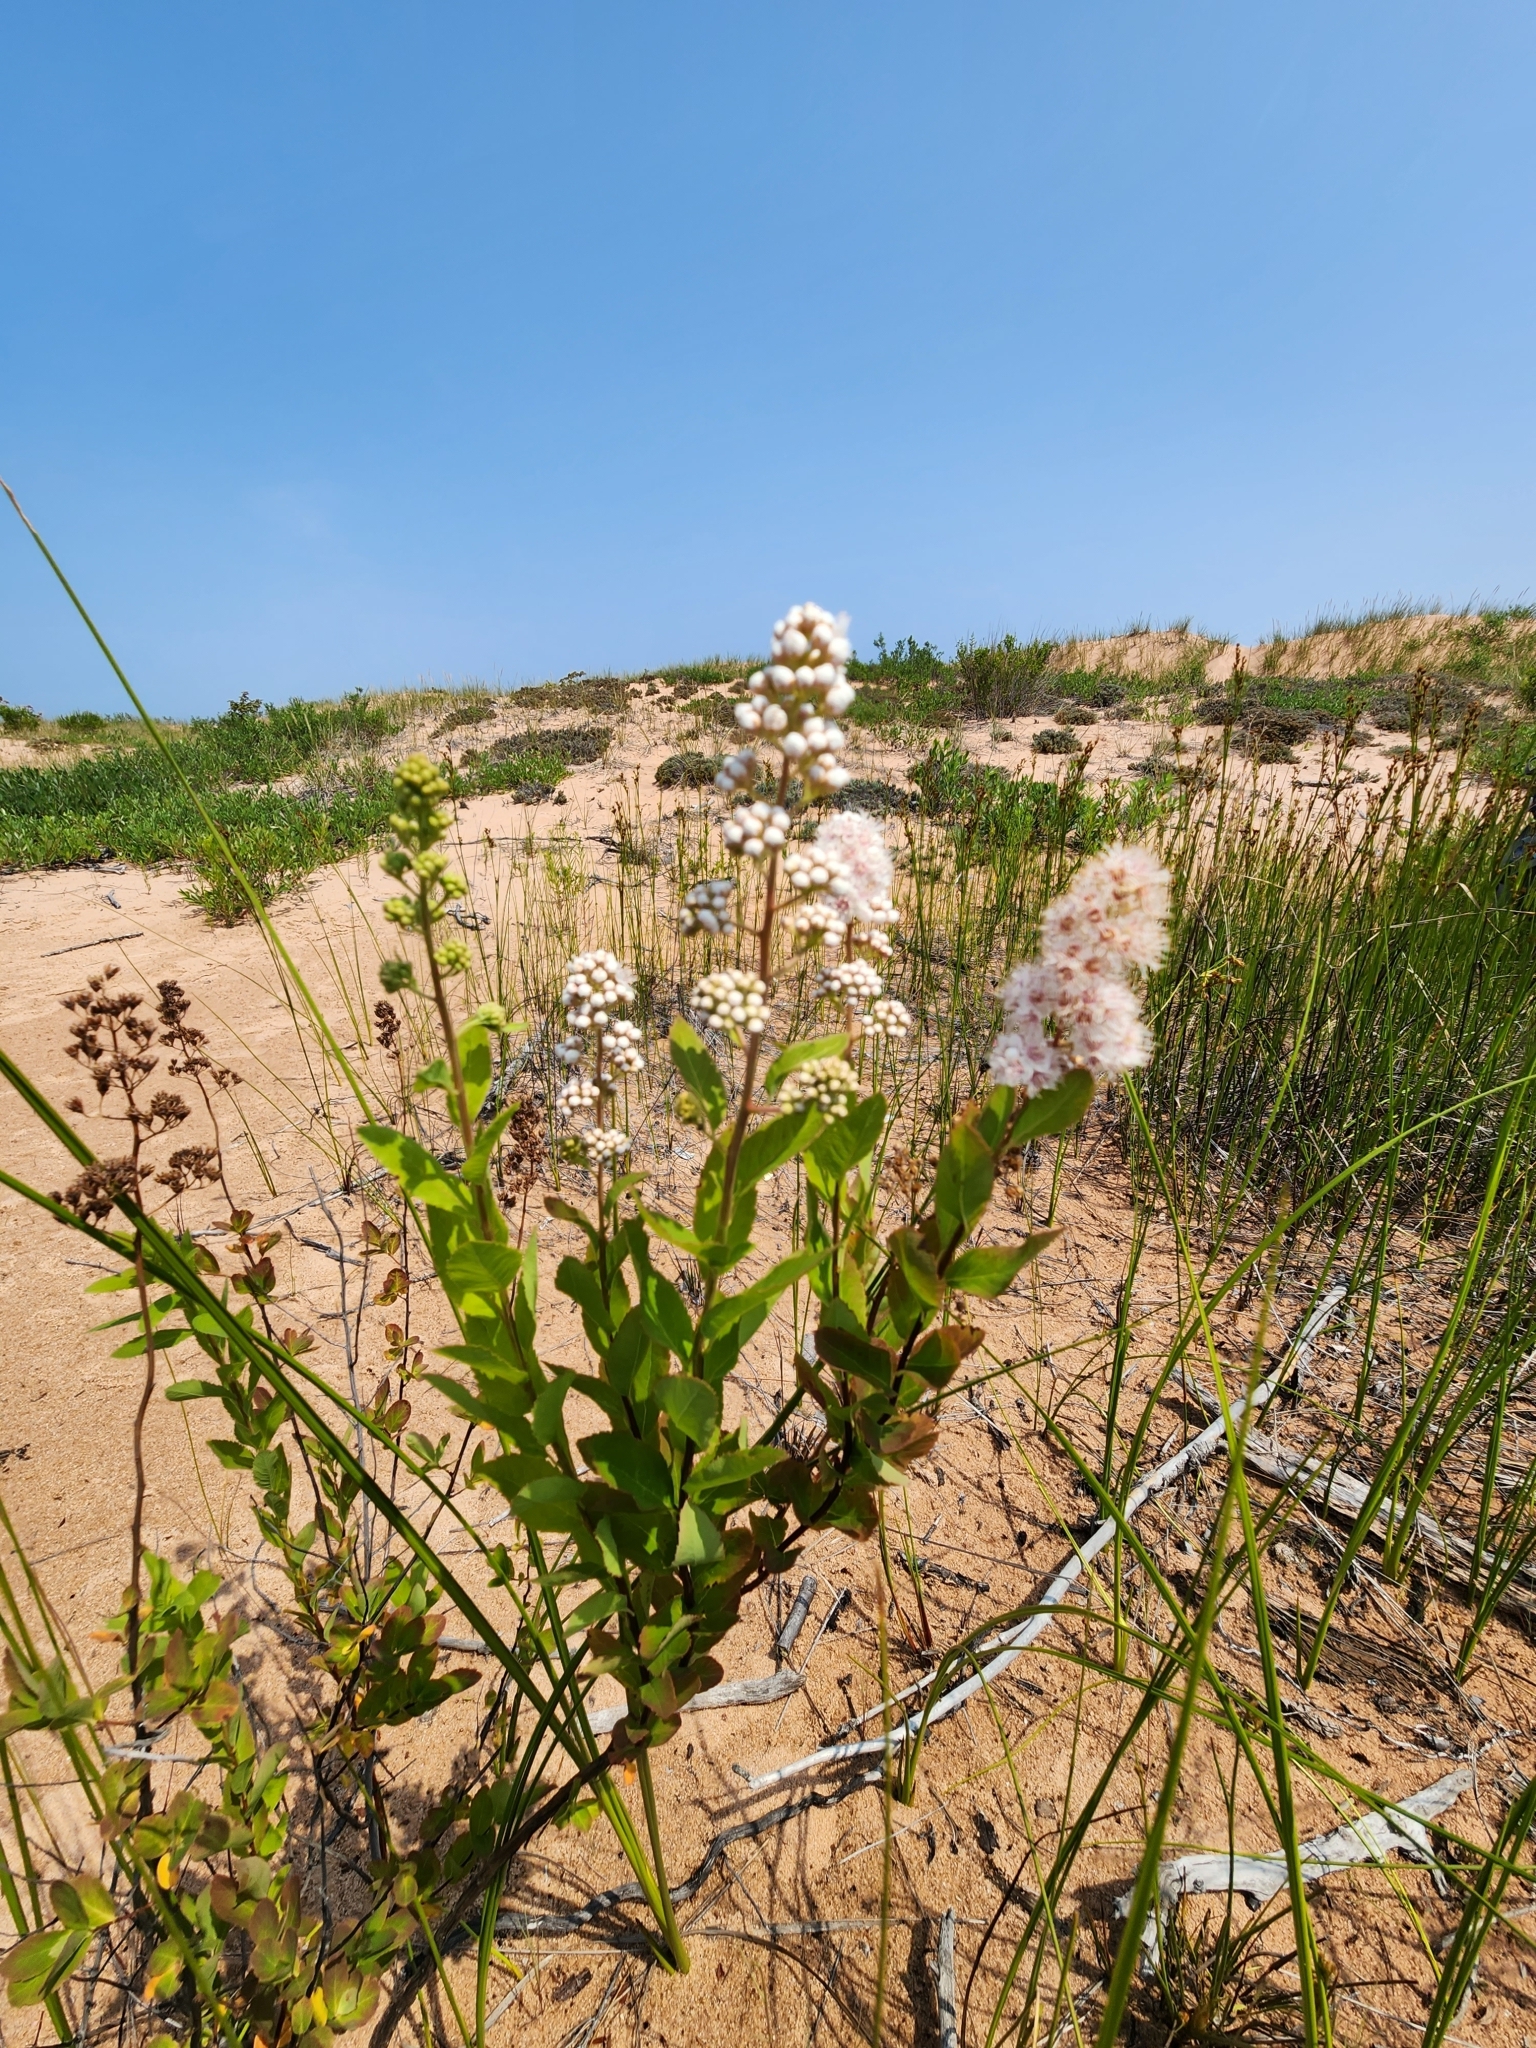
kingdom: Plantae
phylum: Tracheophyta
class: Magnoliopsida
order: Rosales
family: Rosaceae
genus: Spiraea
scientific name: Spiraea alba
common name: Pale bridewort
